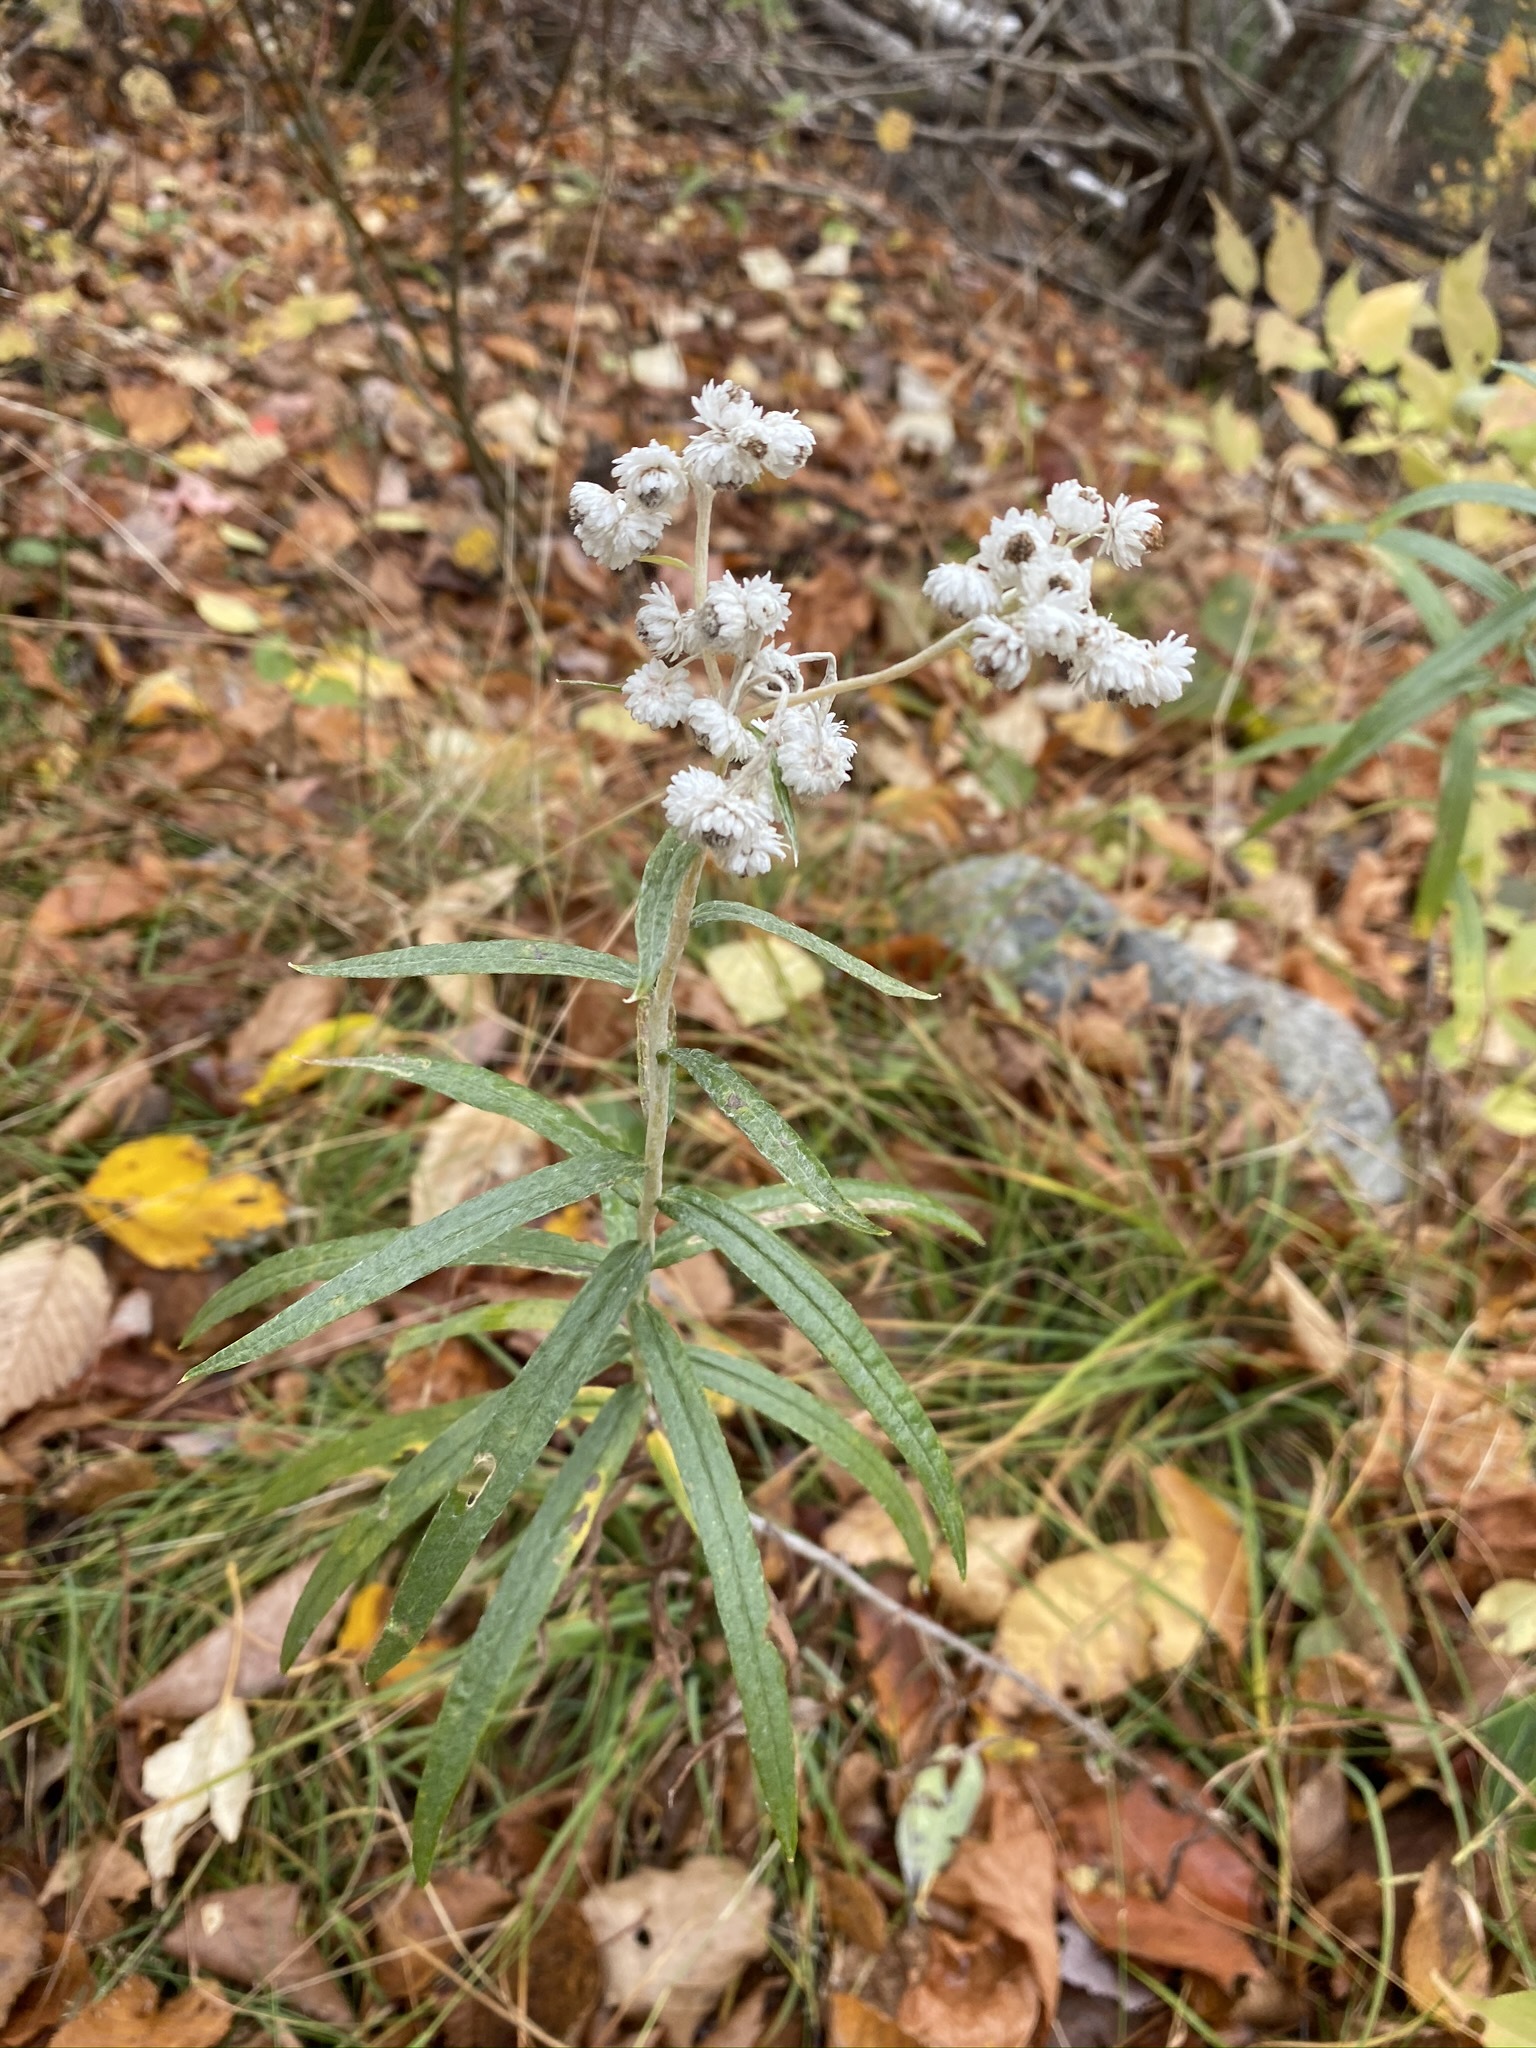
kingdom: Plantae
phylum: Tracheophyta
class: Magnoliopsida
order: Asterales
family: Asteraceae
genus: Anaphalis
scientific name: Anaphalis margaritacea
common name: Pearly everlasting
